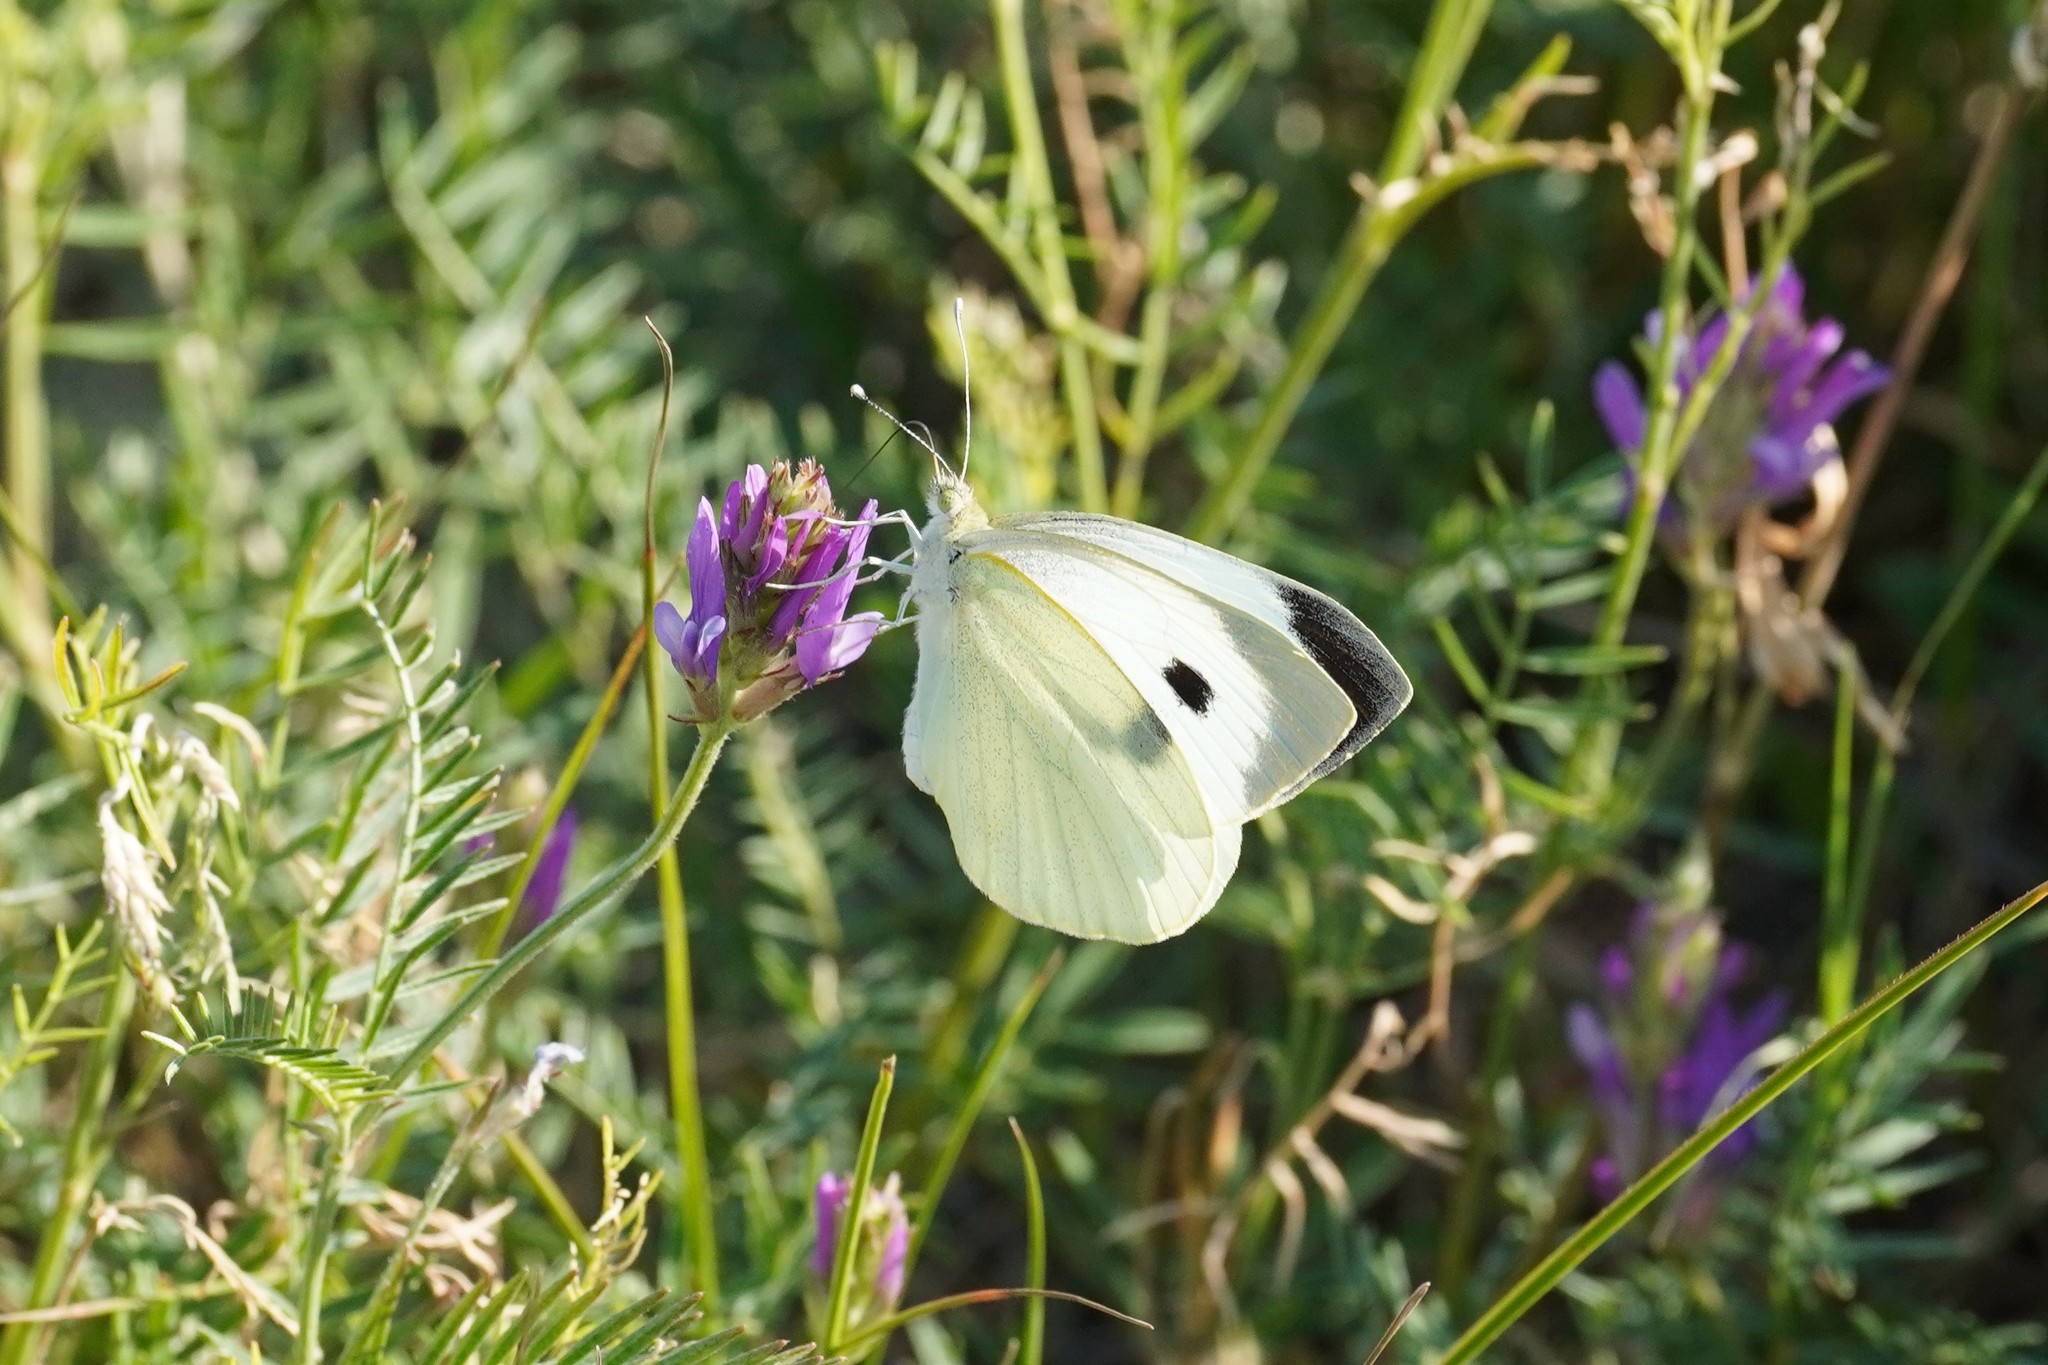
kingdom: Animalia
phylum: Arthropoda
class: Insecta
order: Lepidoptera
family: Pieridae
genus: Pieris
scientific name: Pieris brassicae
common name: Large white
